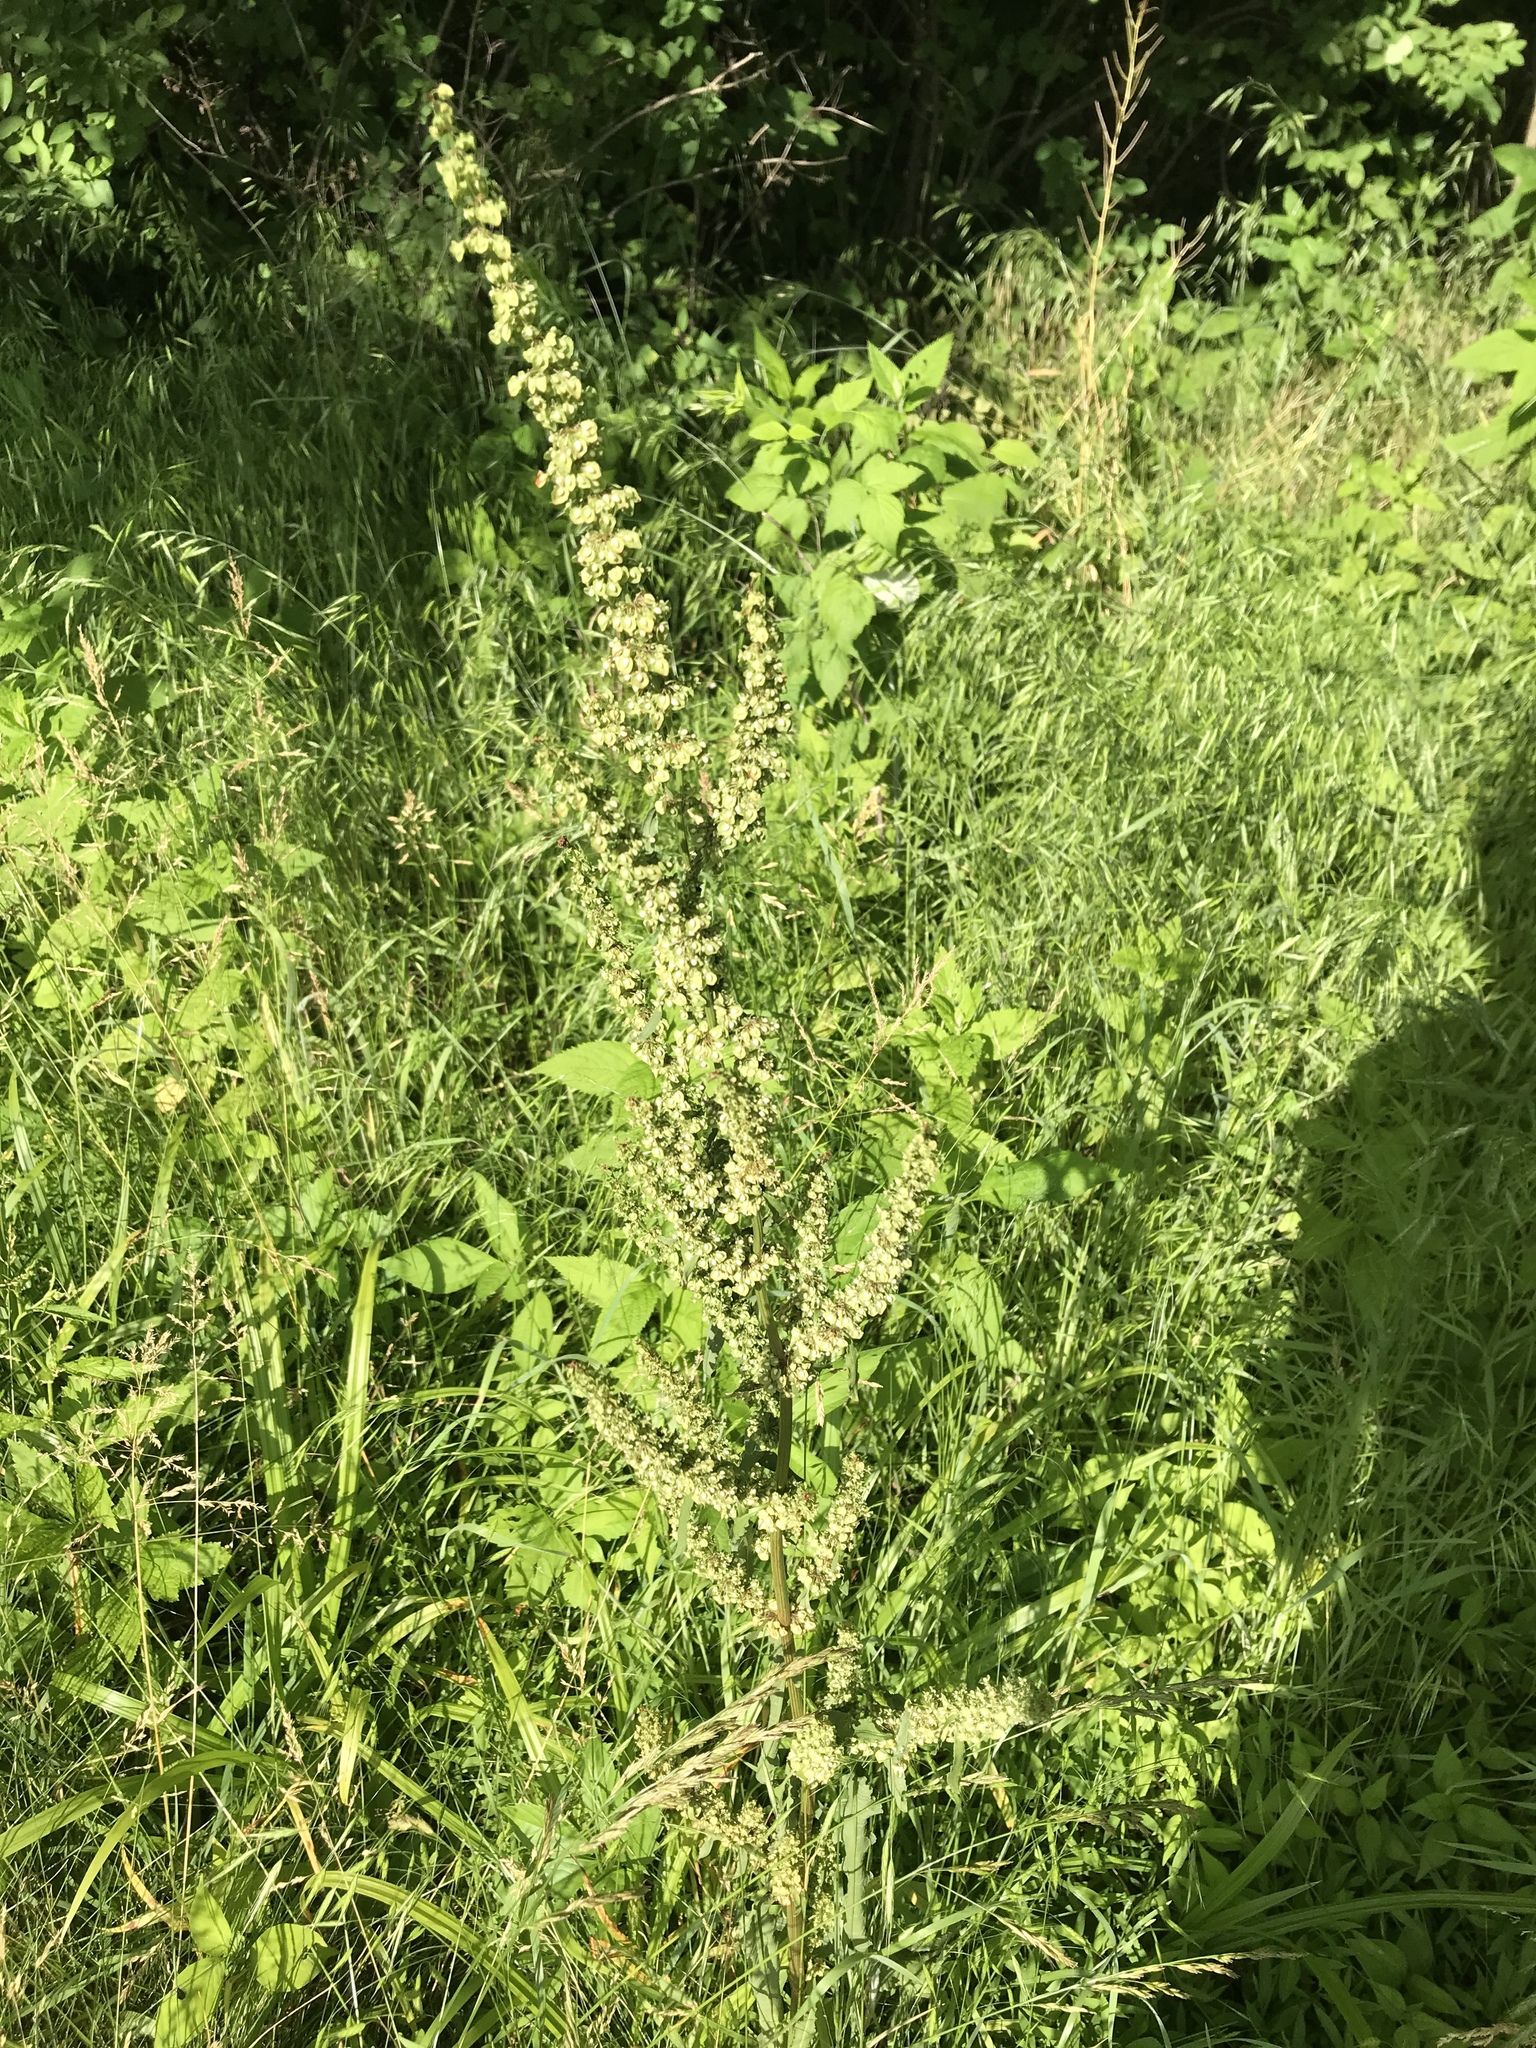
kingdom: Plantae
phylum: Tracheophyta
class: Magnoliopsida
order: Caryophyllales
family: Polygonaceae
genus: Rumex
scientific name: Rumex crispus
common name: Curled dock
